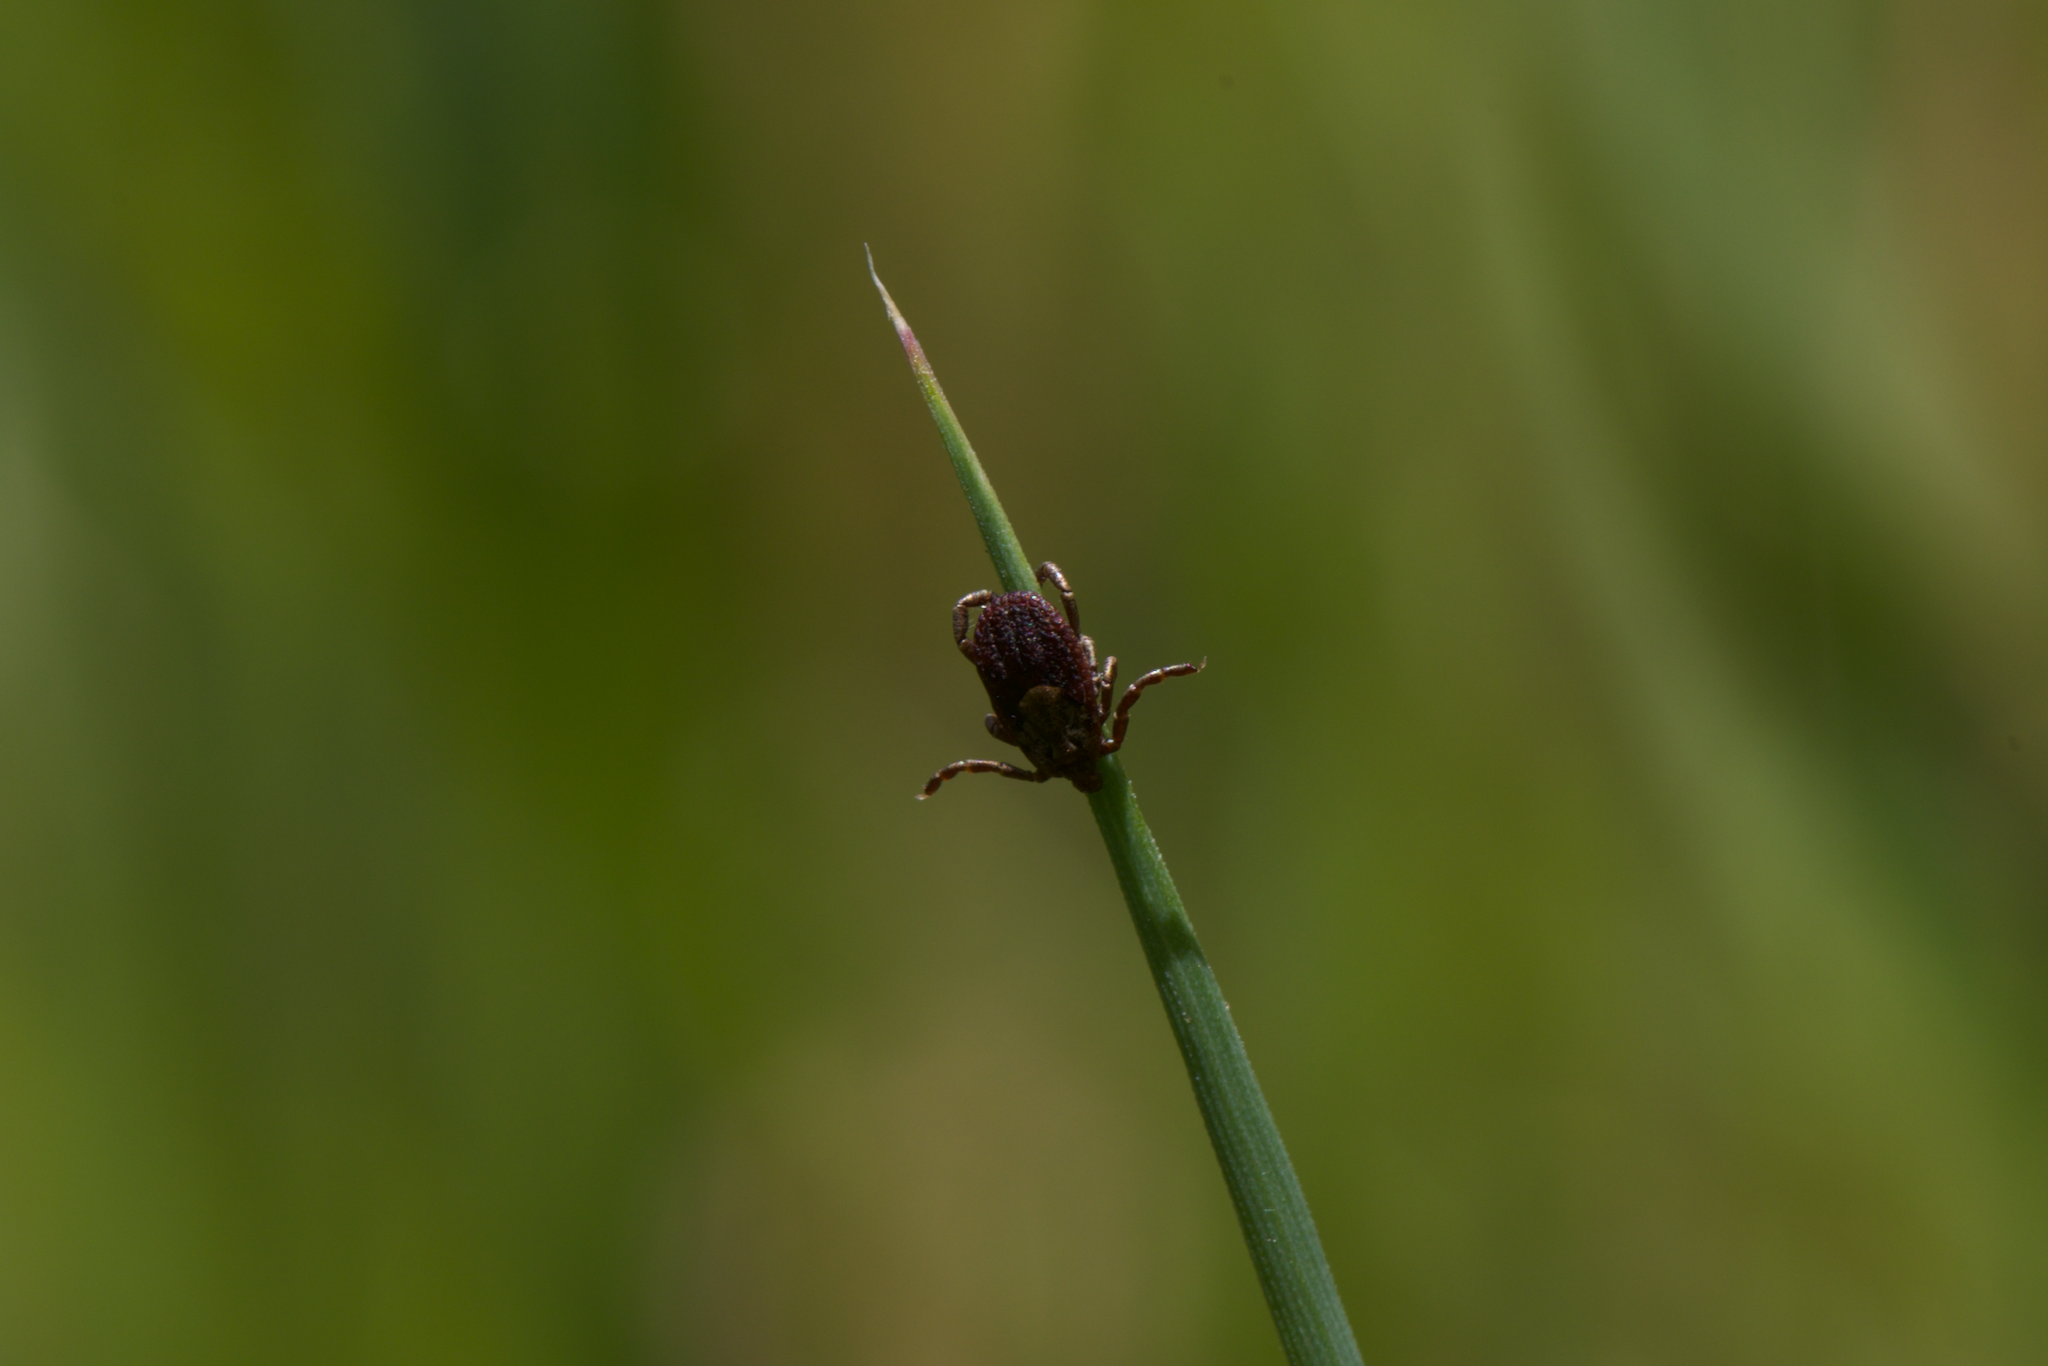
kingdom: Animalia
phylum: Arthropoda
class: Arachnida
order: Ixodida
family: Ixodidae
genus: Dermacentor
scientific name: Dermacentor occidentalis
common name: Net tick
